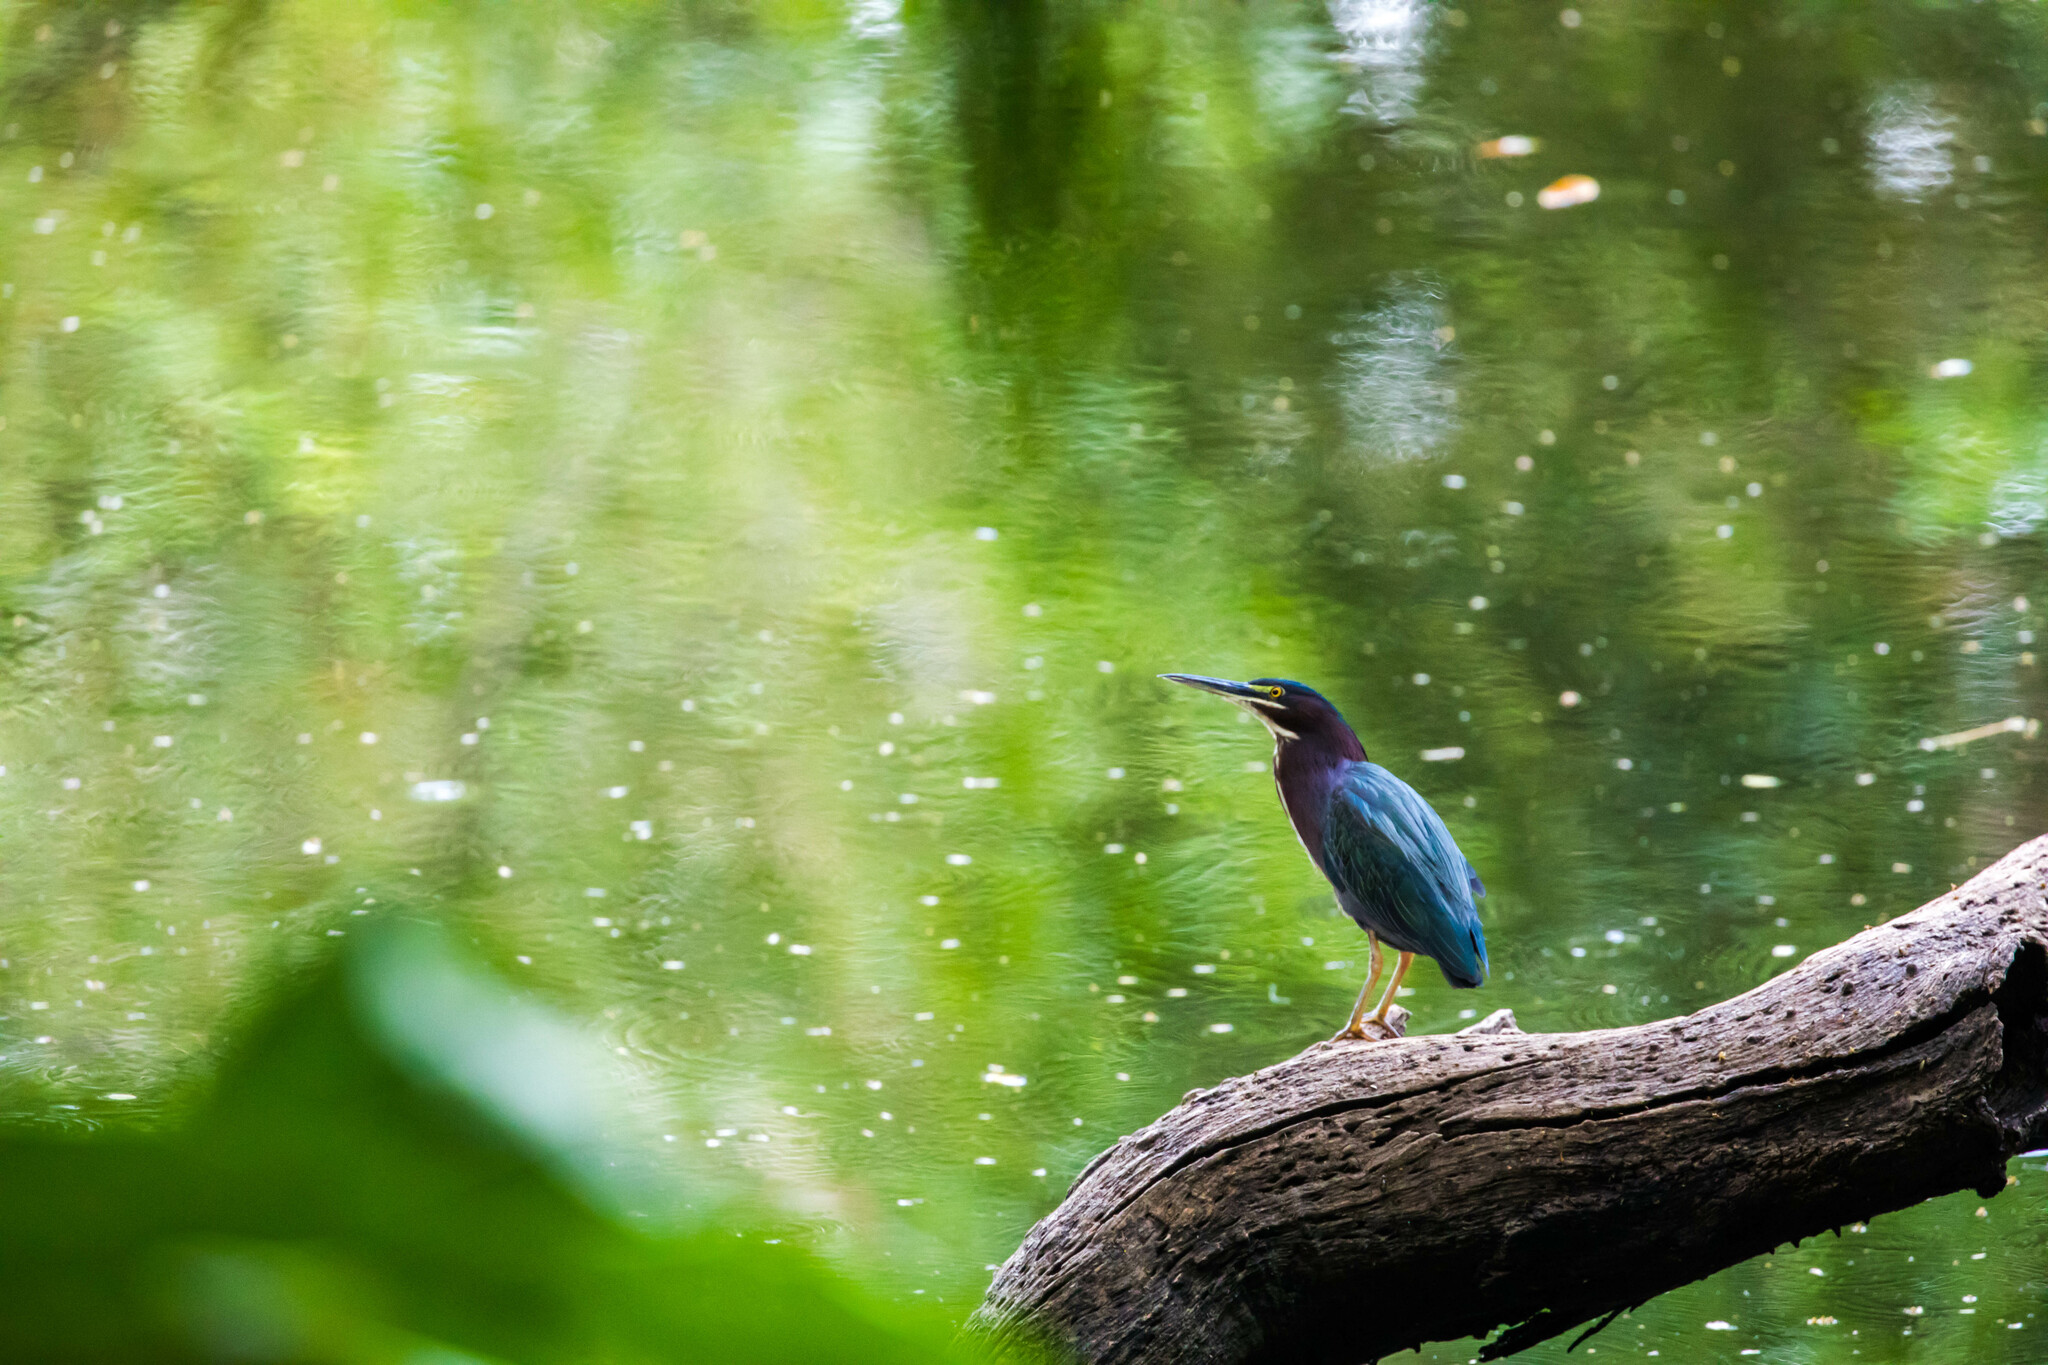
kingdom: Animalia
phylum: Chordata
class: Aves
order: Pelecaniformes
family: Ardeidae
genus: Butorides
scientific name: Butorides virescens
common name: Green heron
